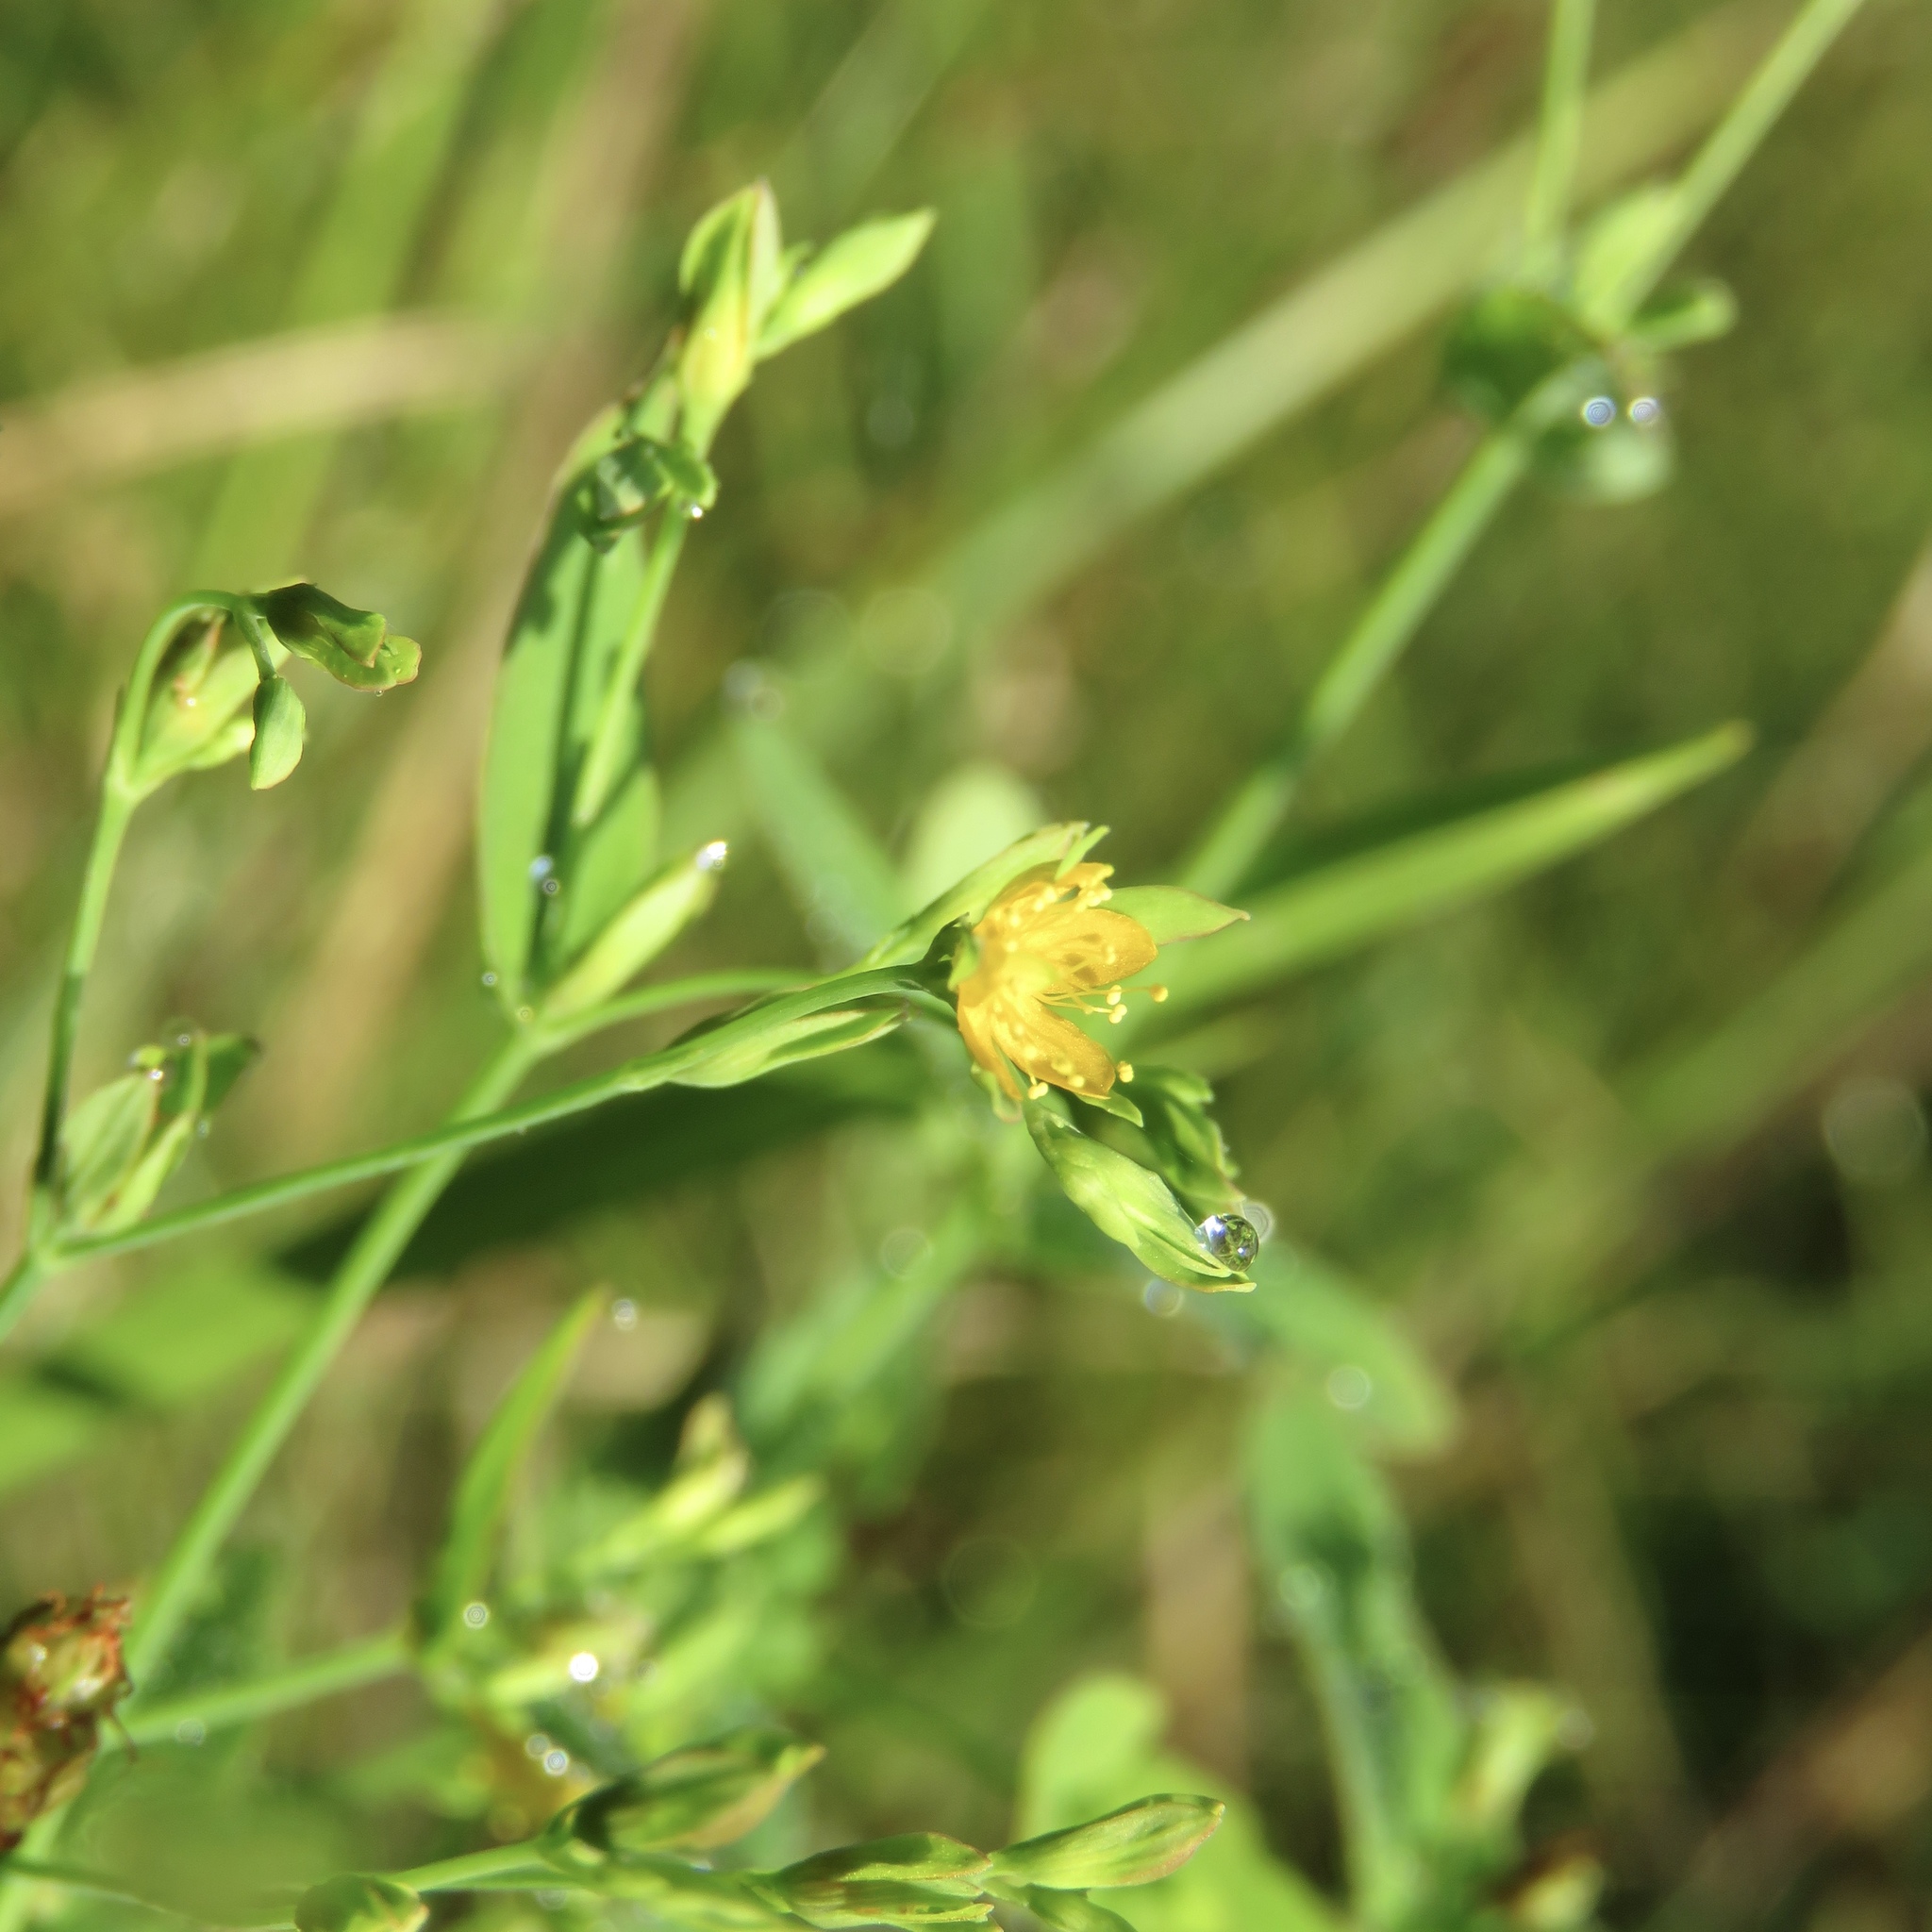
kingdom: Plantae
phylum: Tracheophyta
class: Magnoliopsida
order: Malpighiales
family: Hypericaceae
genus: Hypericum
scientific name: Hypericum mutilum
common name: Dwarf st. john's-wort
